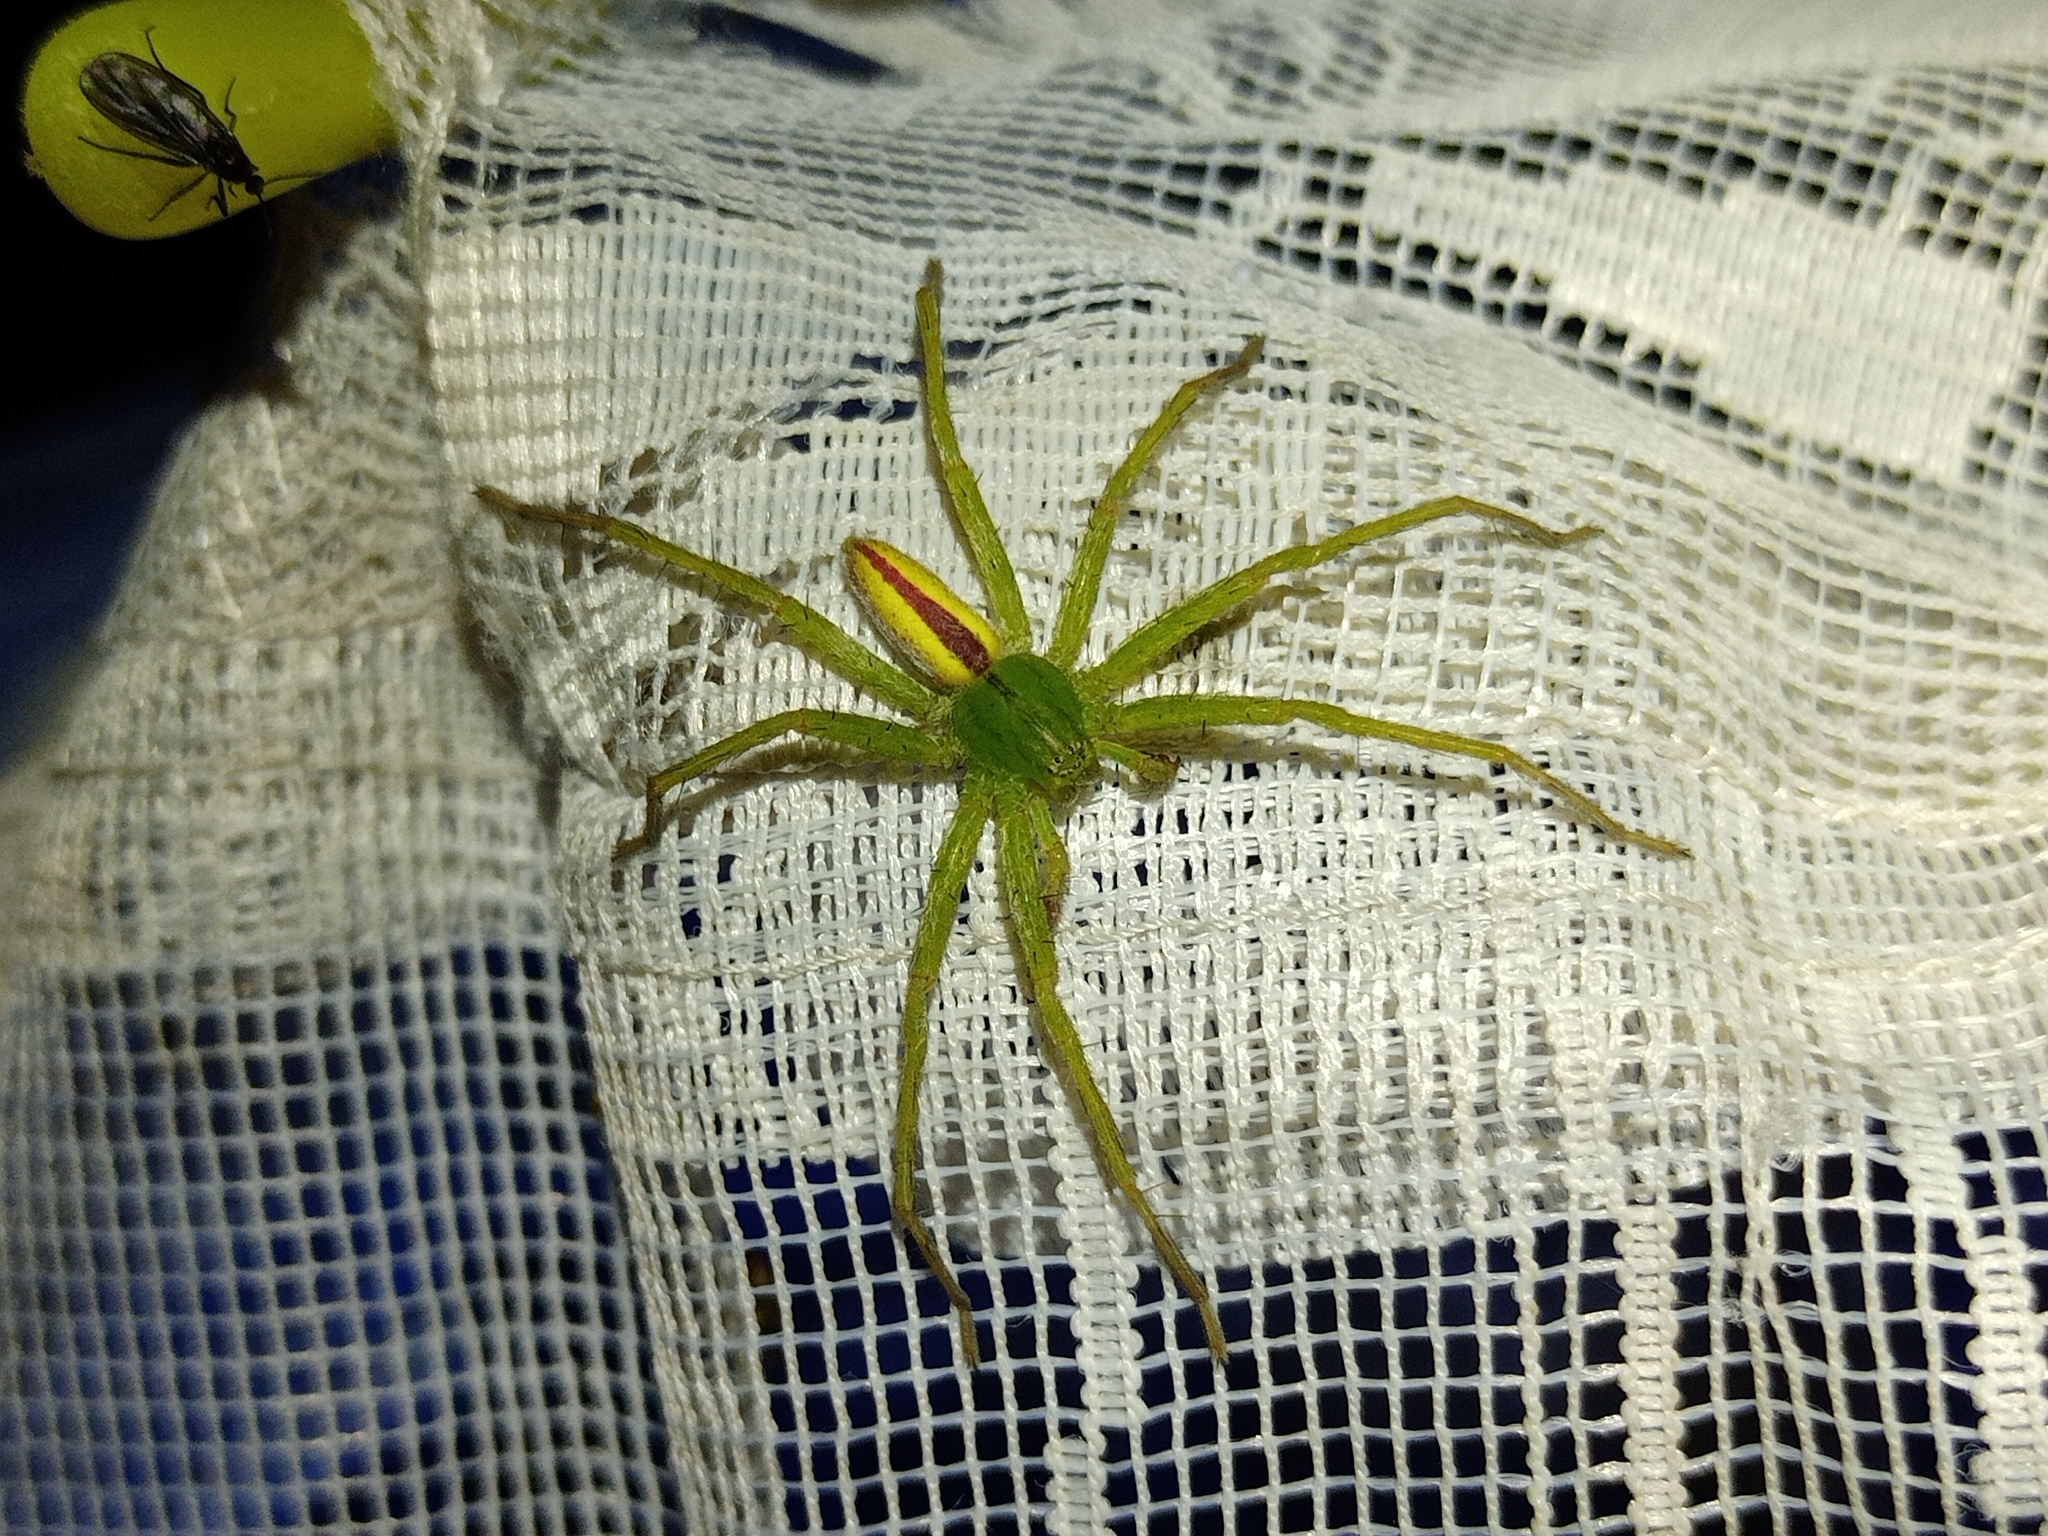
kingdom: Animalia
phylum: Arthropoda
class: Arachnida
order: Araneae
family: Sparassidae
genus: Micrommata
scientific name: Micrommata virescens
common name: Green spider
